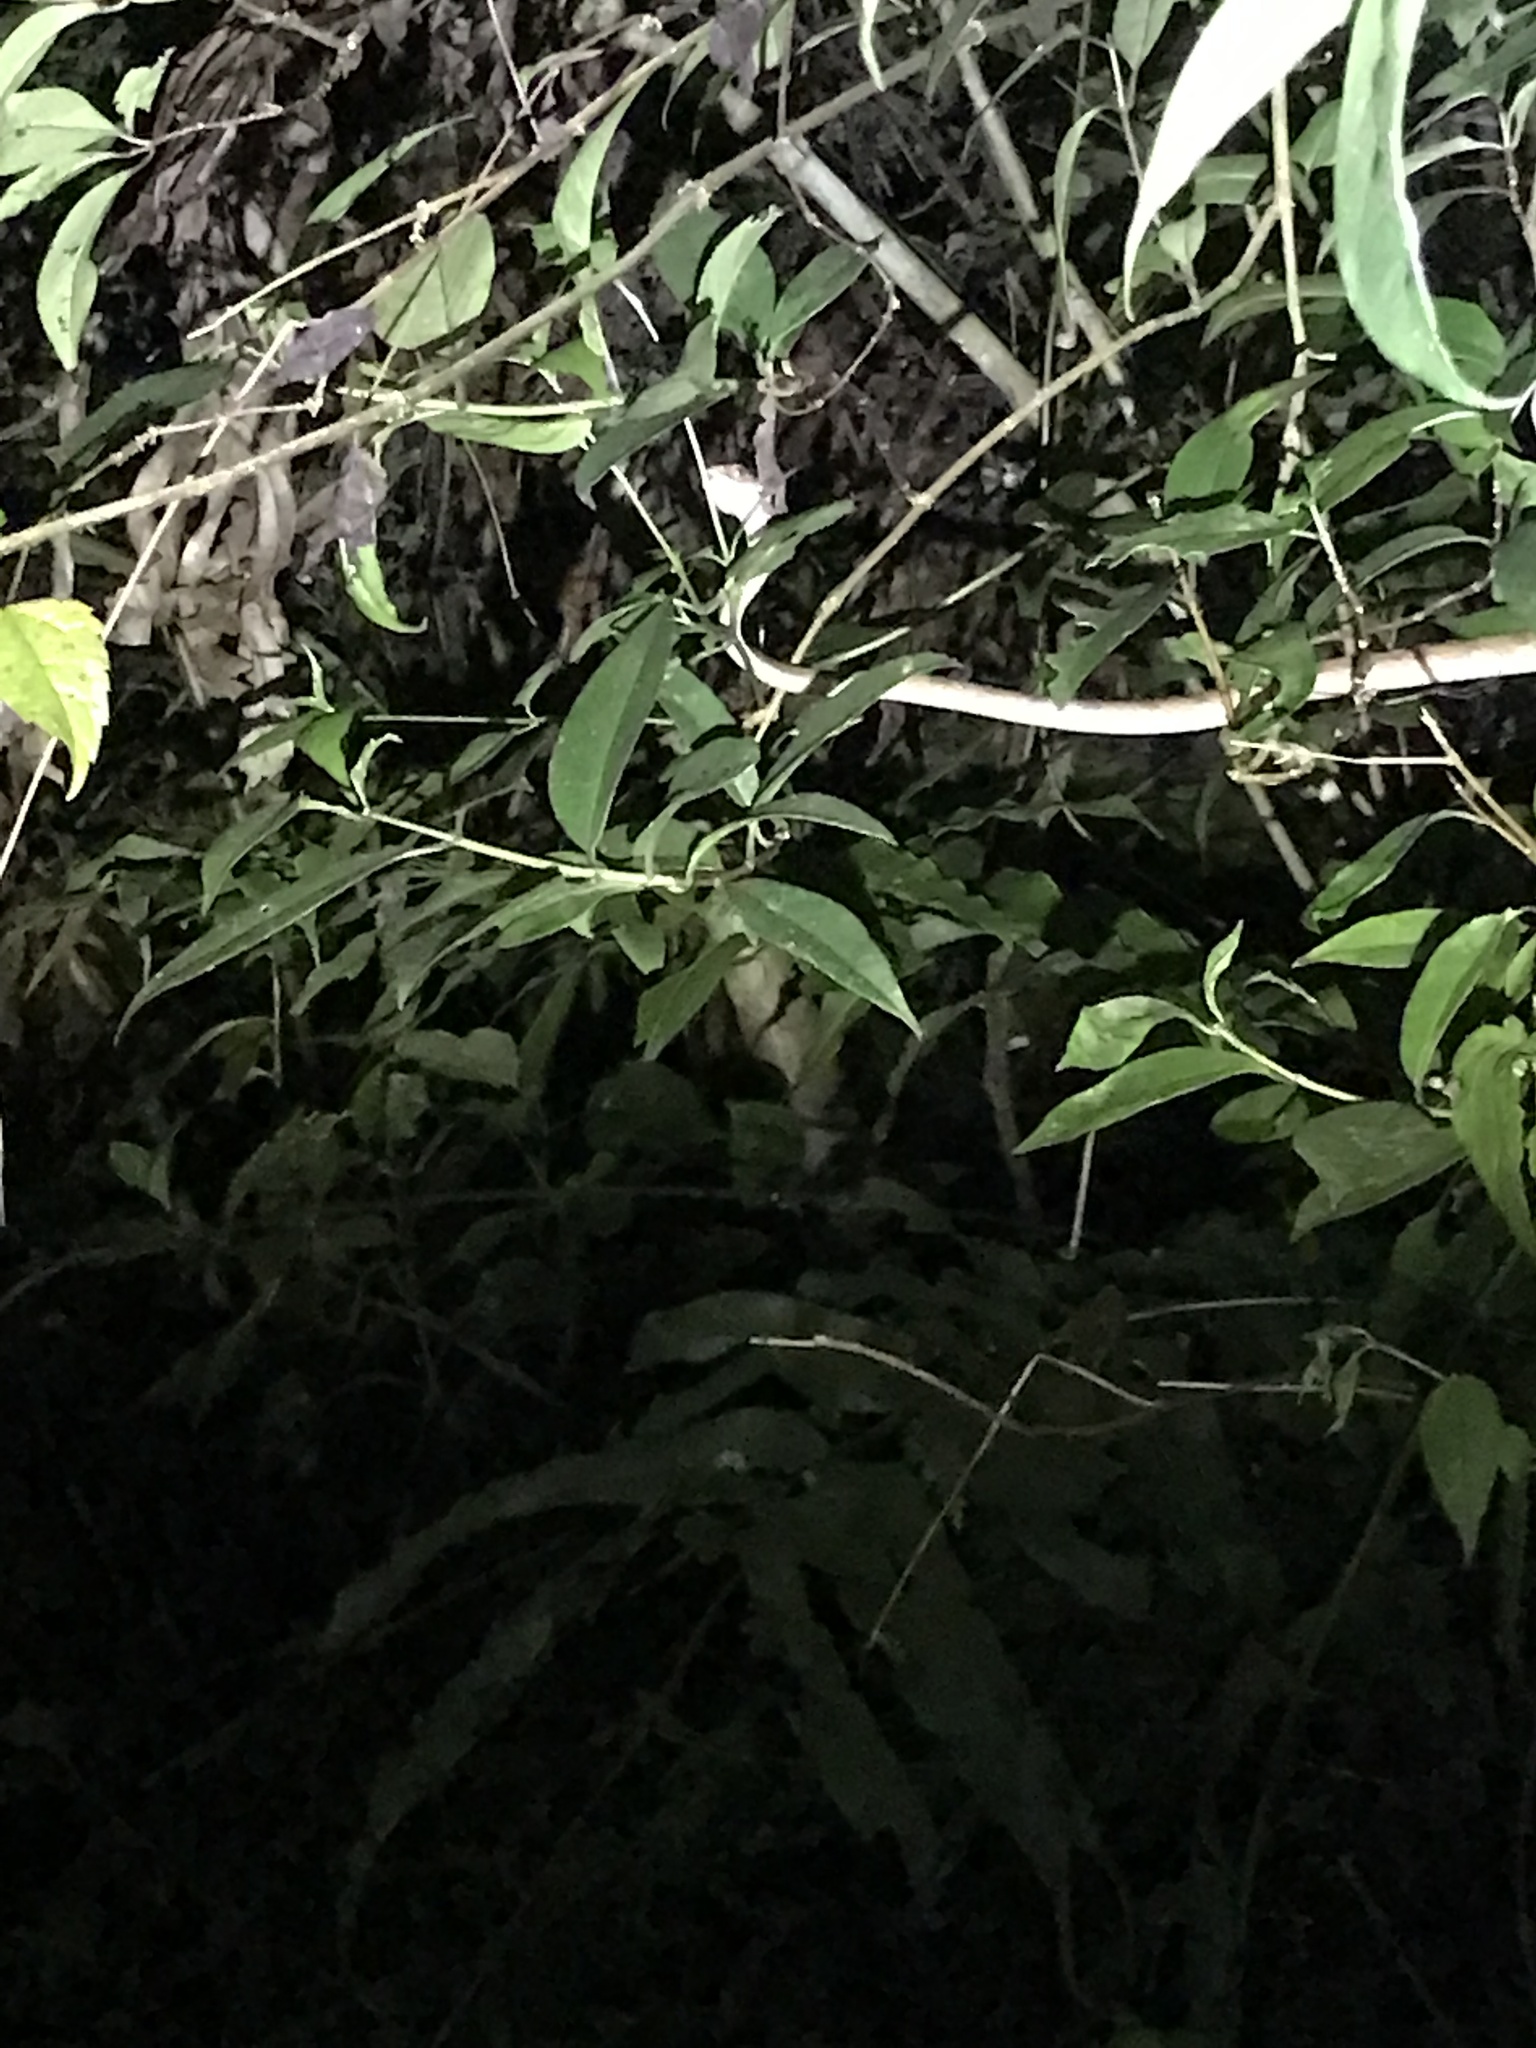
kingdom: Animalia
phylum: Chordata
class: Squamata
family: Colubridae
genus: Boiga
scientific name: Boiga kraepelini
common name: Kelung cat snake
